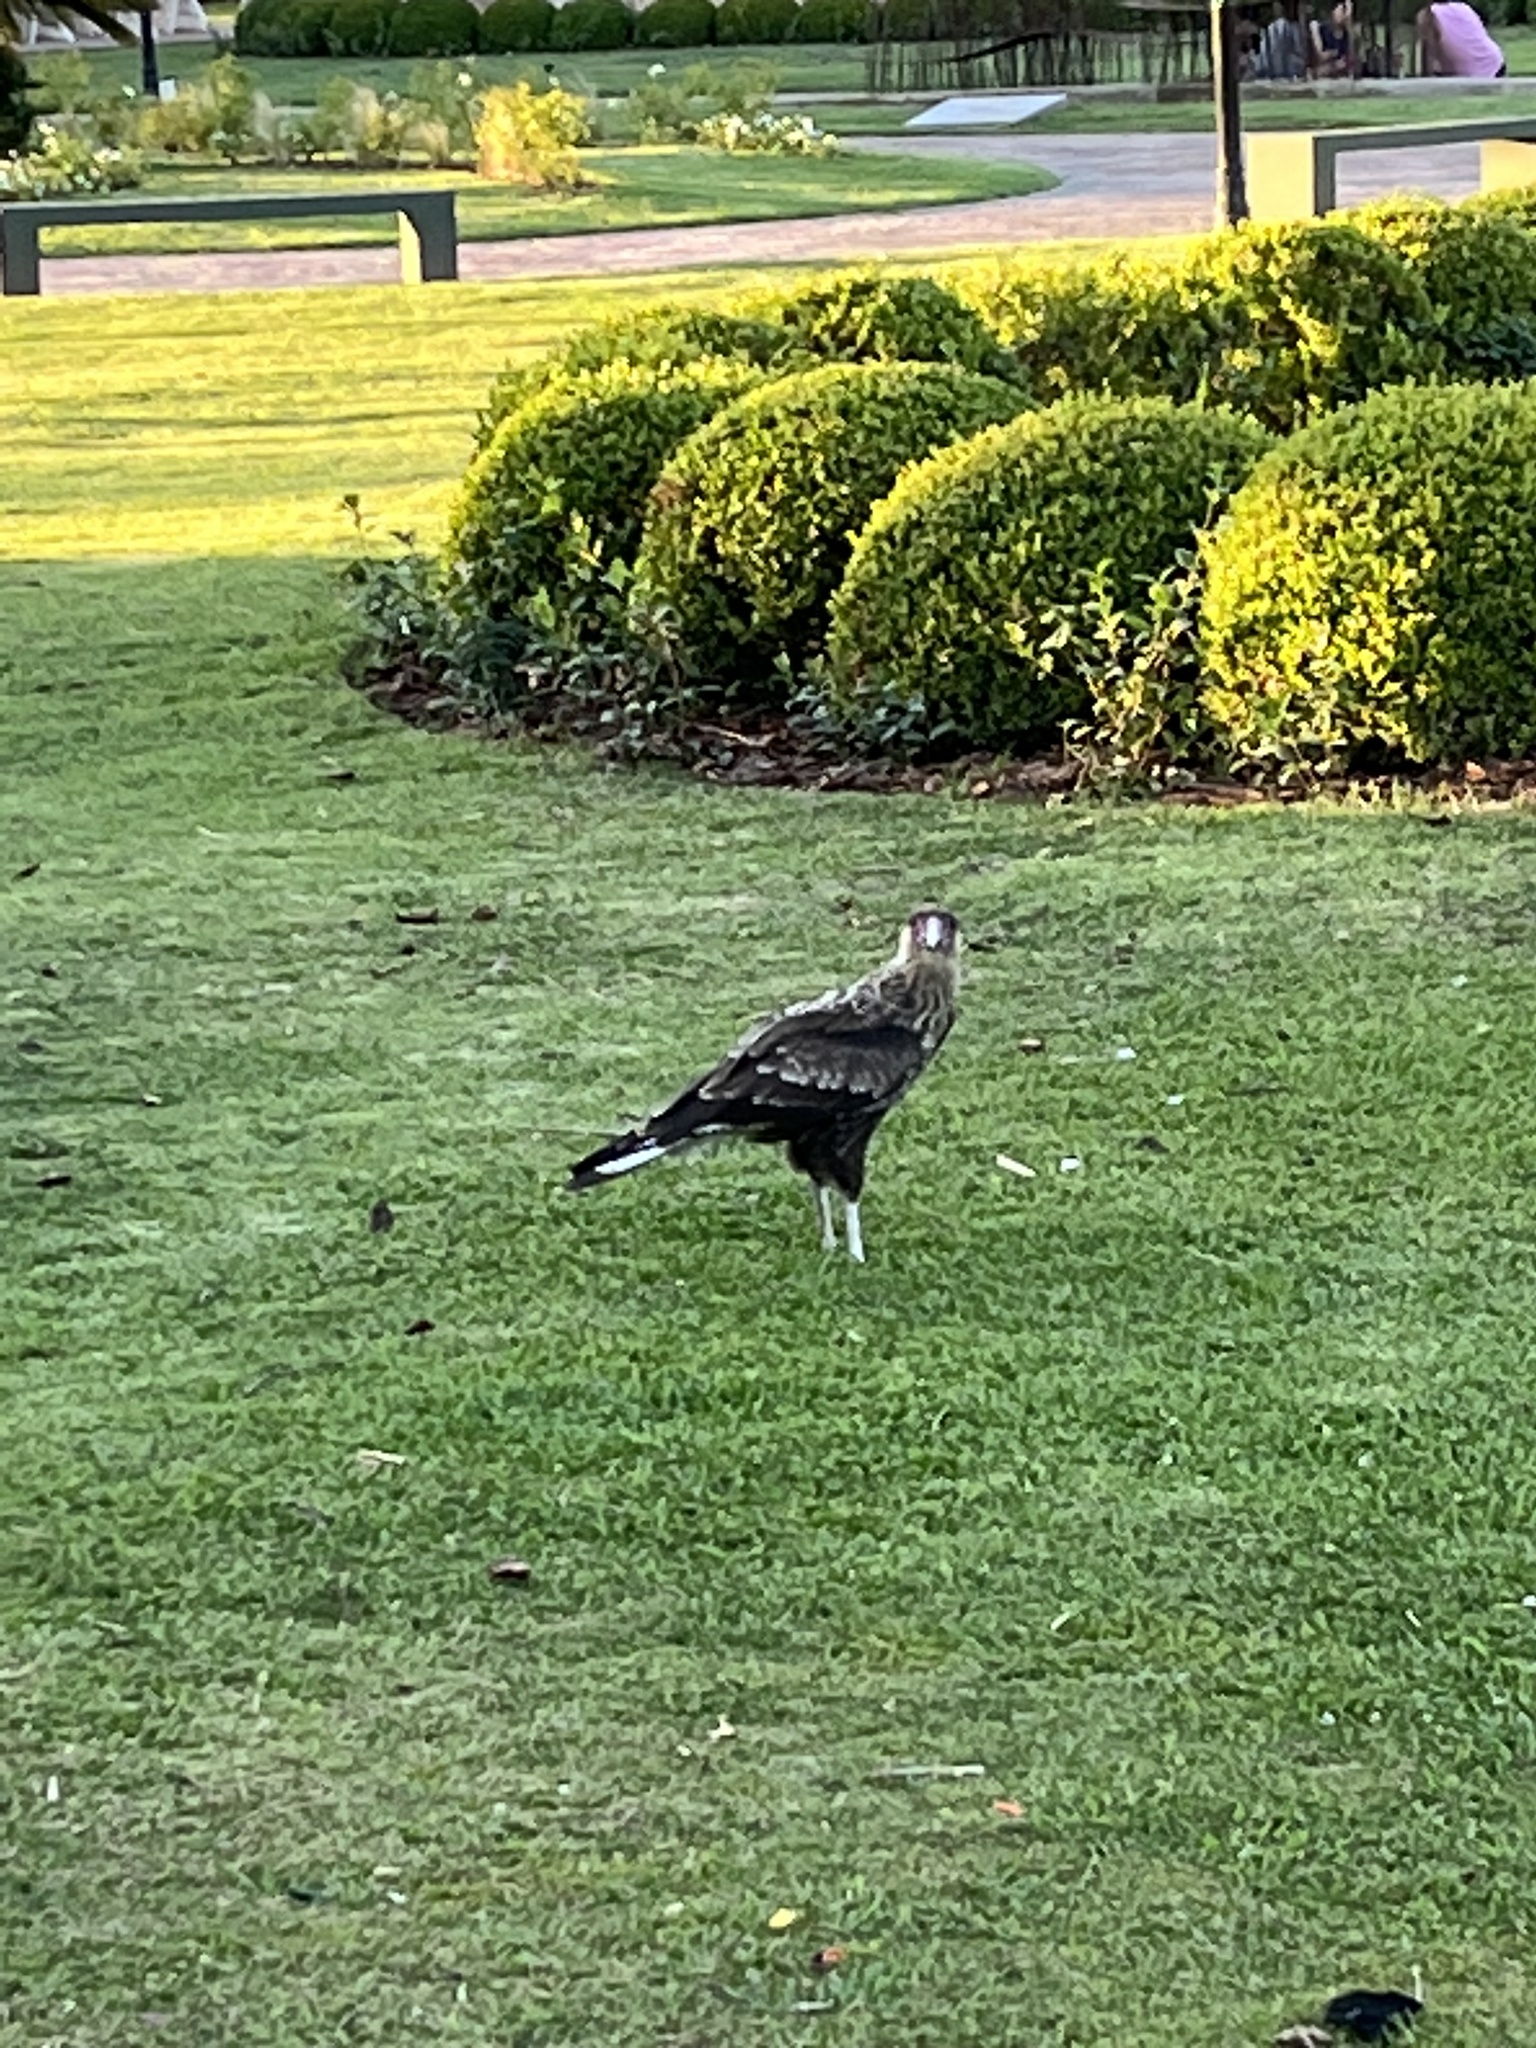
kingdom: Animalia
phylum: Chordata
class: Aves
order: Falconiformes
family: Falconidae
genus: Caracara
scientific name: Caracara plancus
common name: Southern caracara
